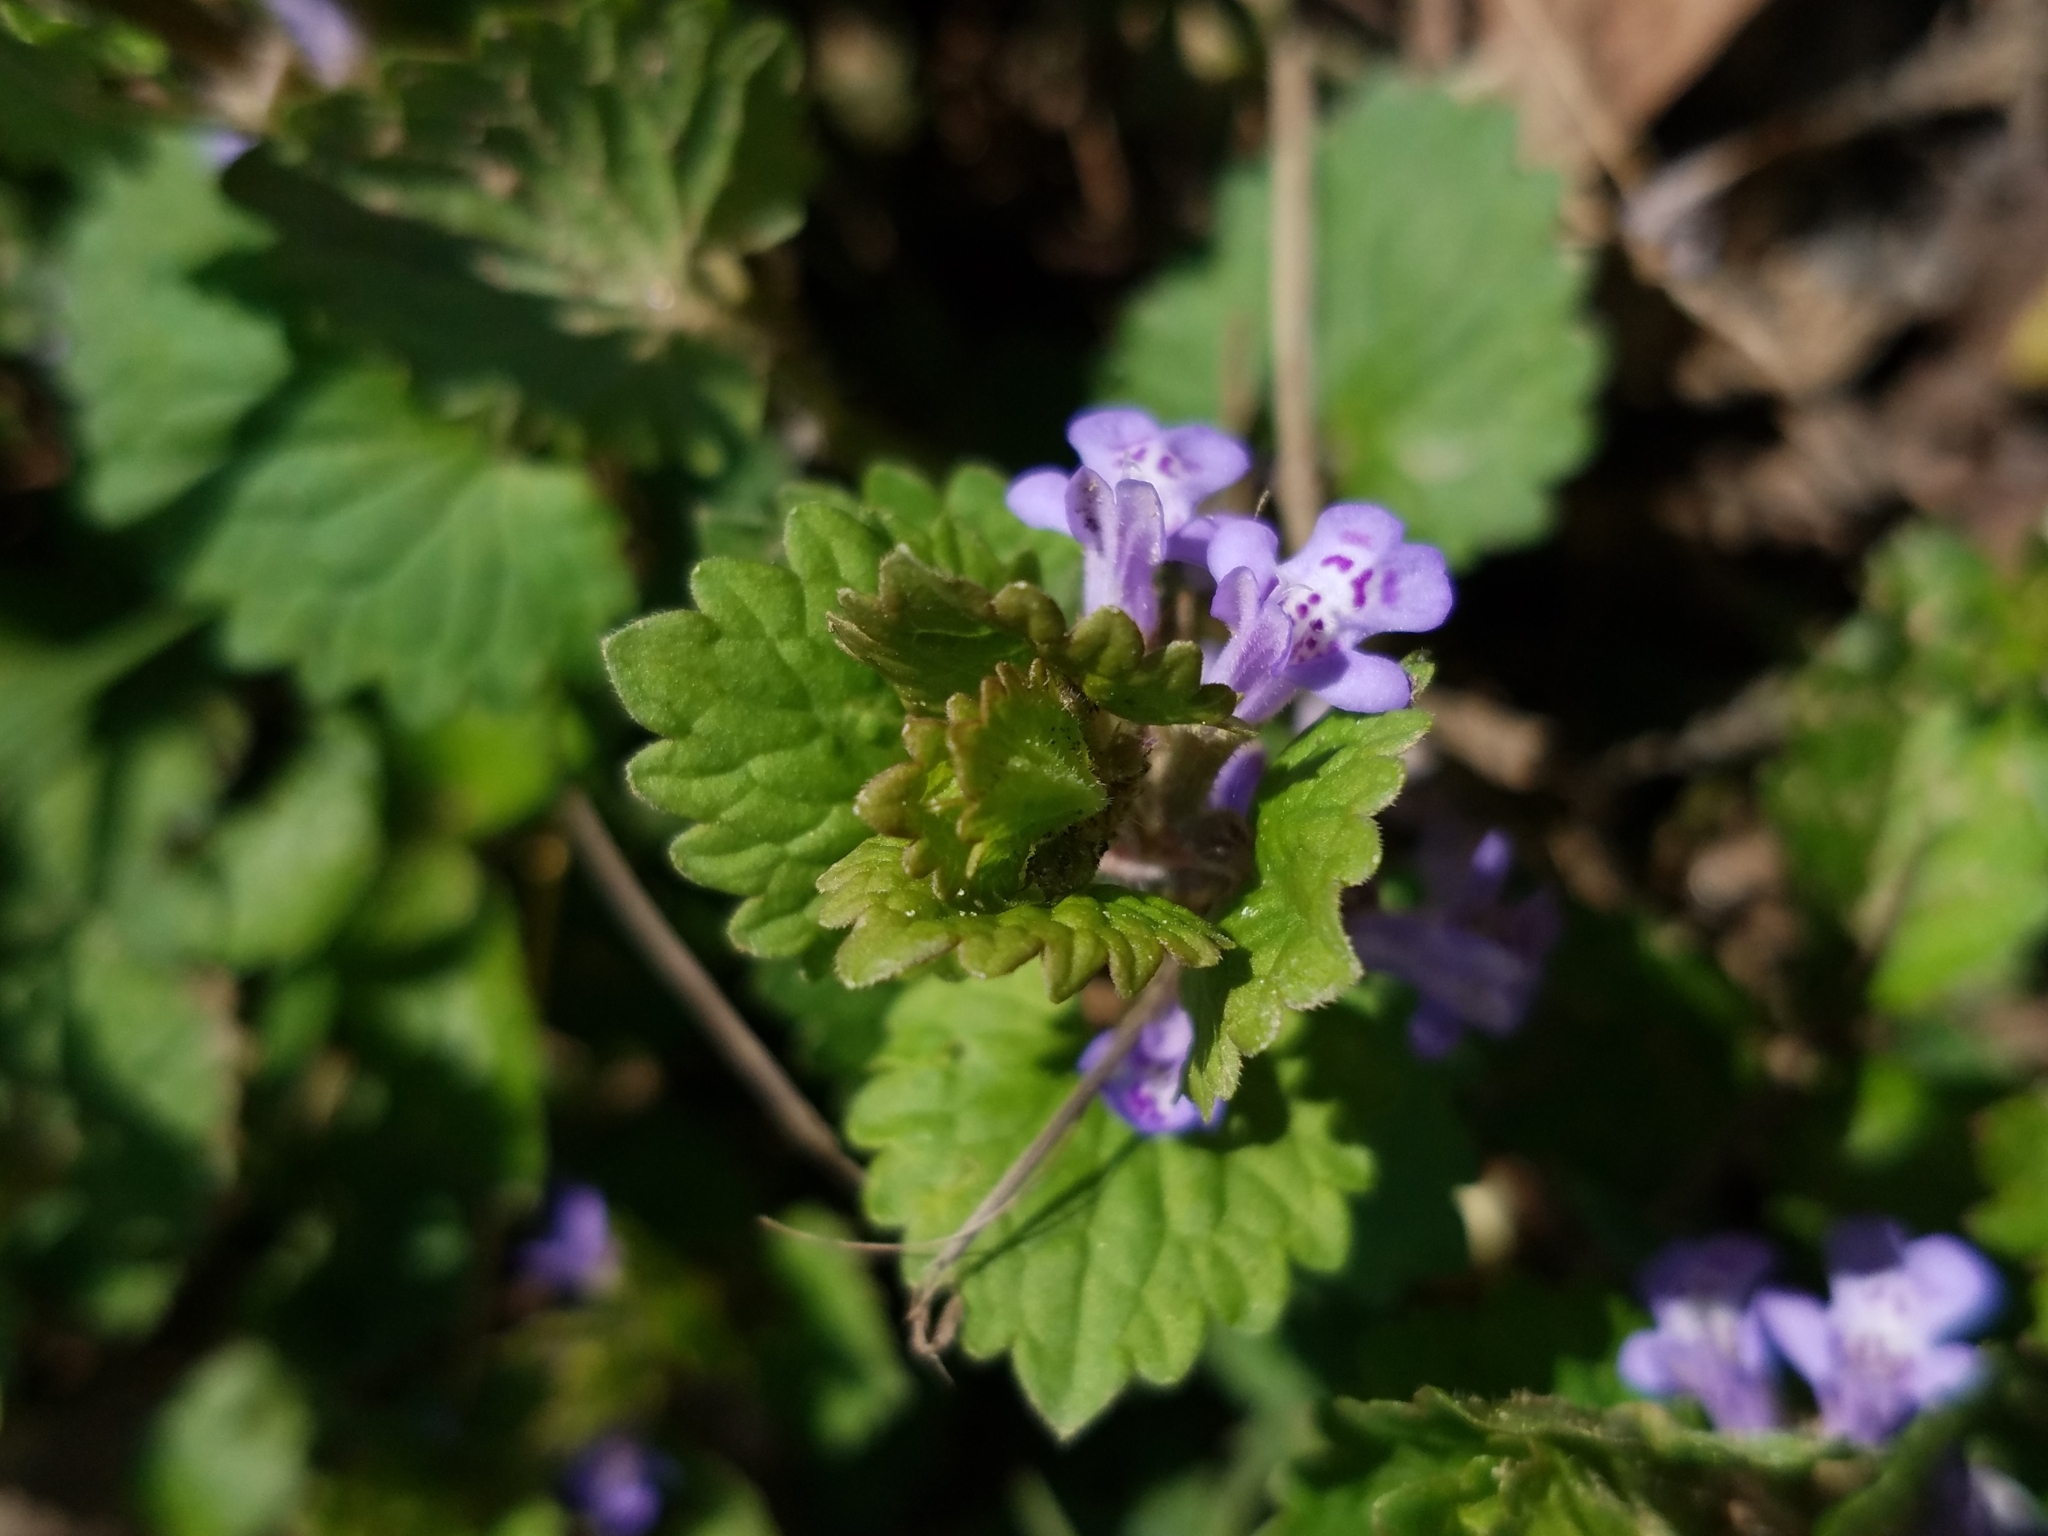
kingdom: Plantae
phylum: Tracheophyta
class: Magnoliopsida
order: Lamiales
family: Lamiaceae
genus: Glechoma
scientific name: Glechoma hederacea
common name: Ground ivy
